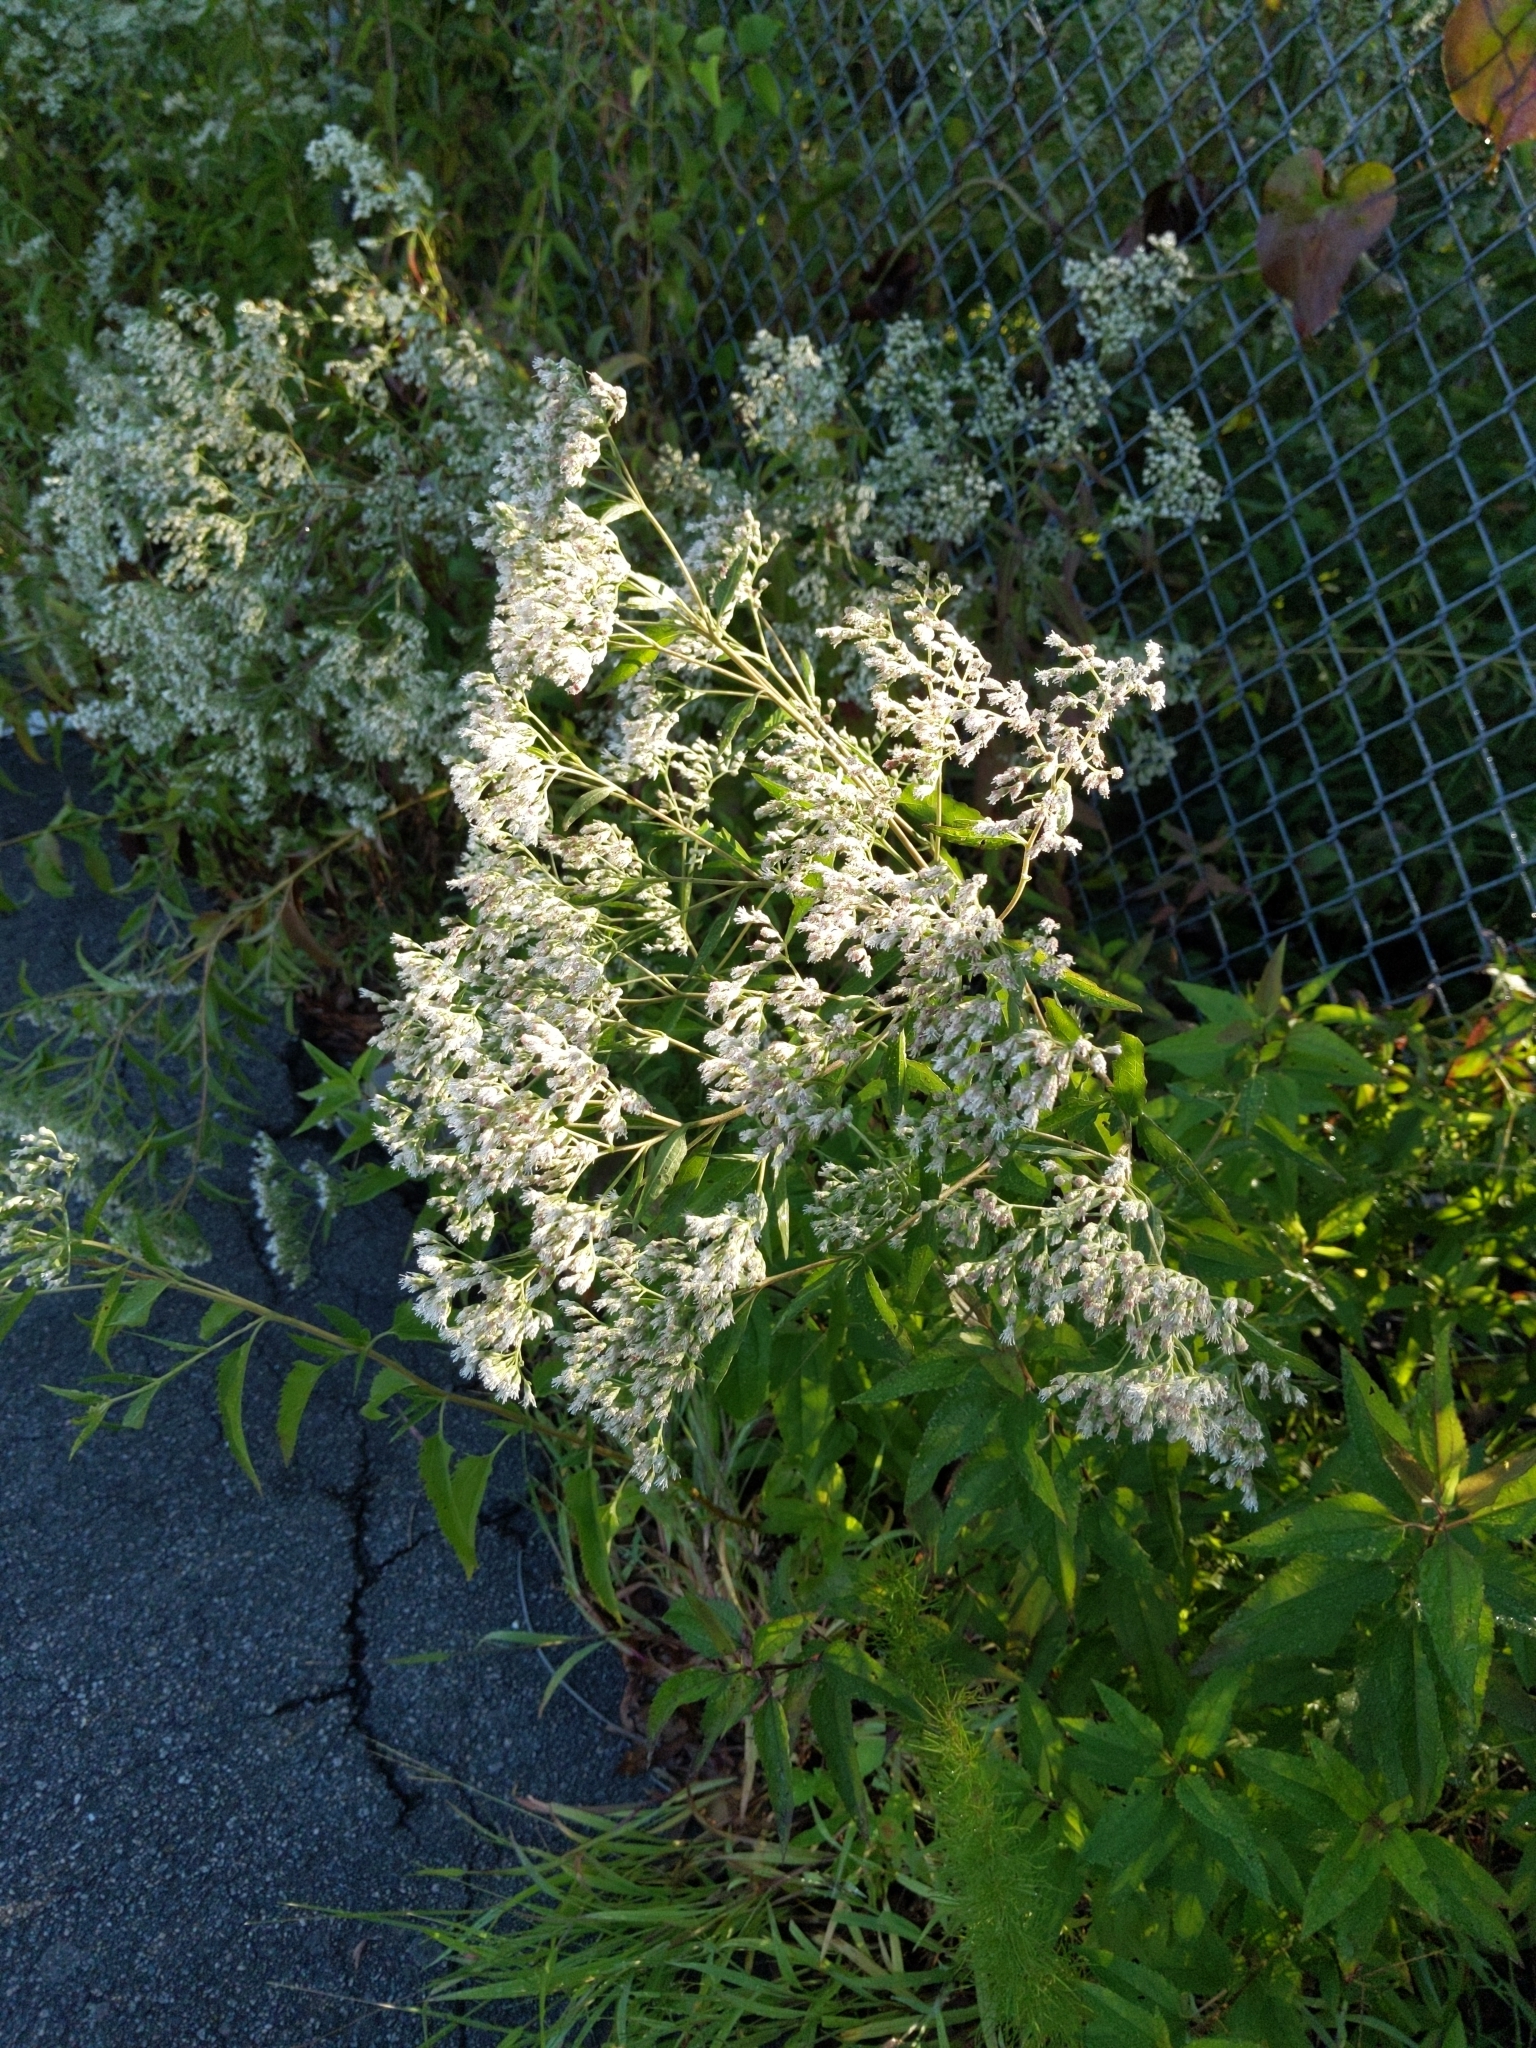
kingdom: Plantae
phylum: Tracheophyta
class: Magnoliopsida
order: Asterales
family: Asteraceae
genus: Eupatorium
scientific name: Eupatorium serotinum
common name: Late boneset
